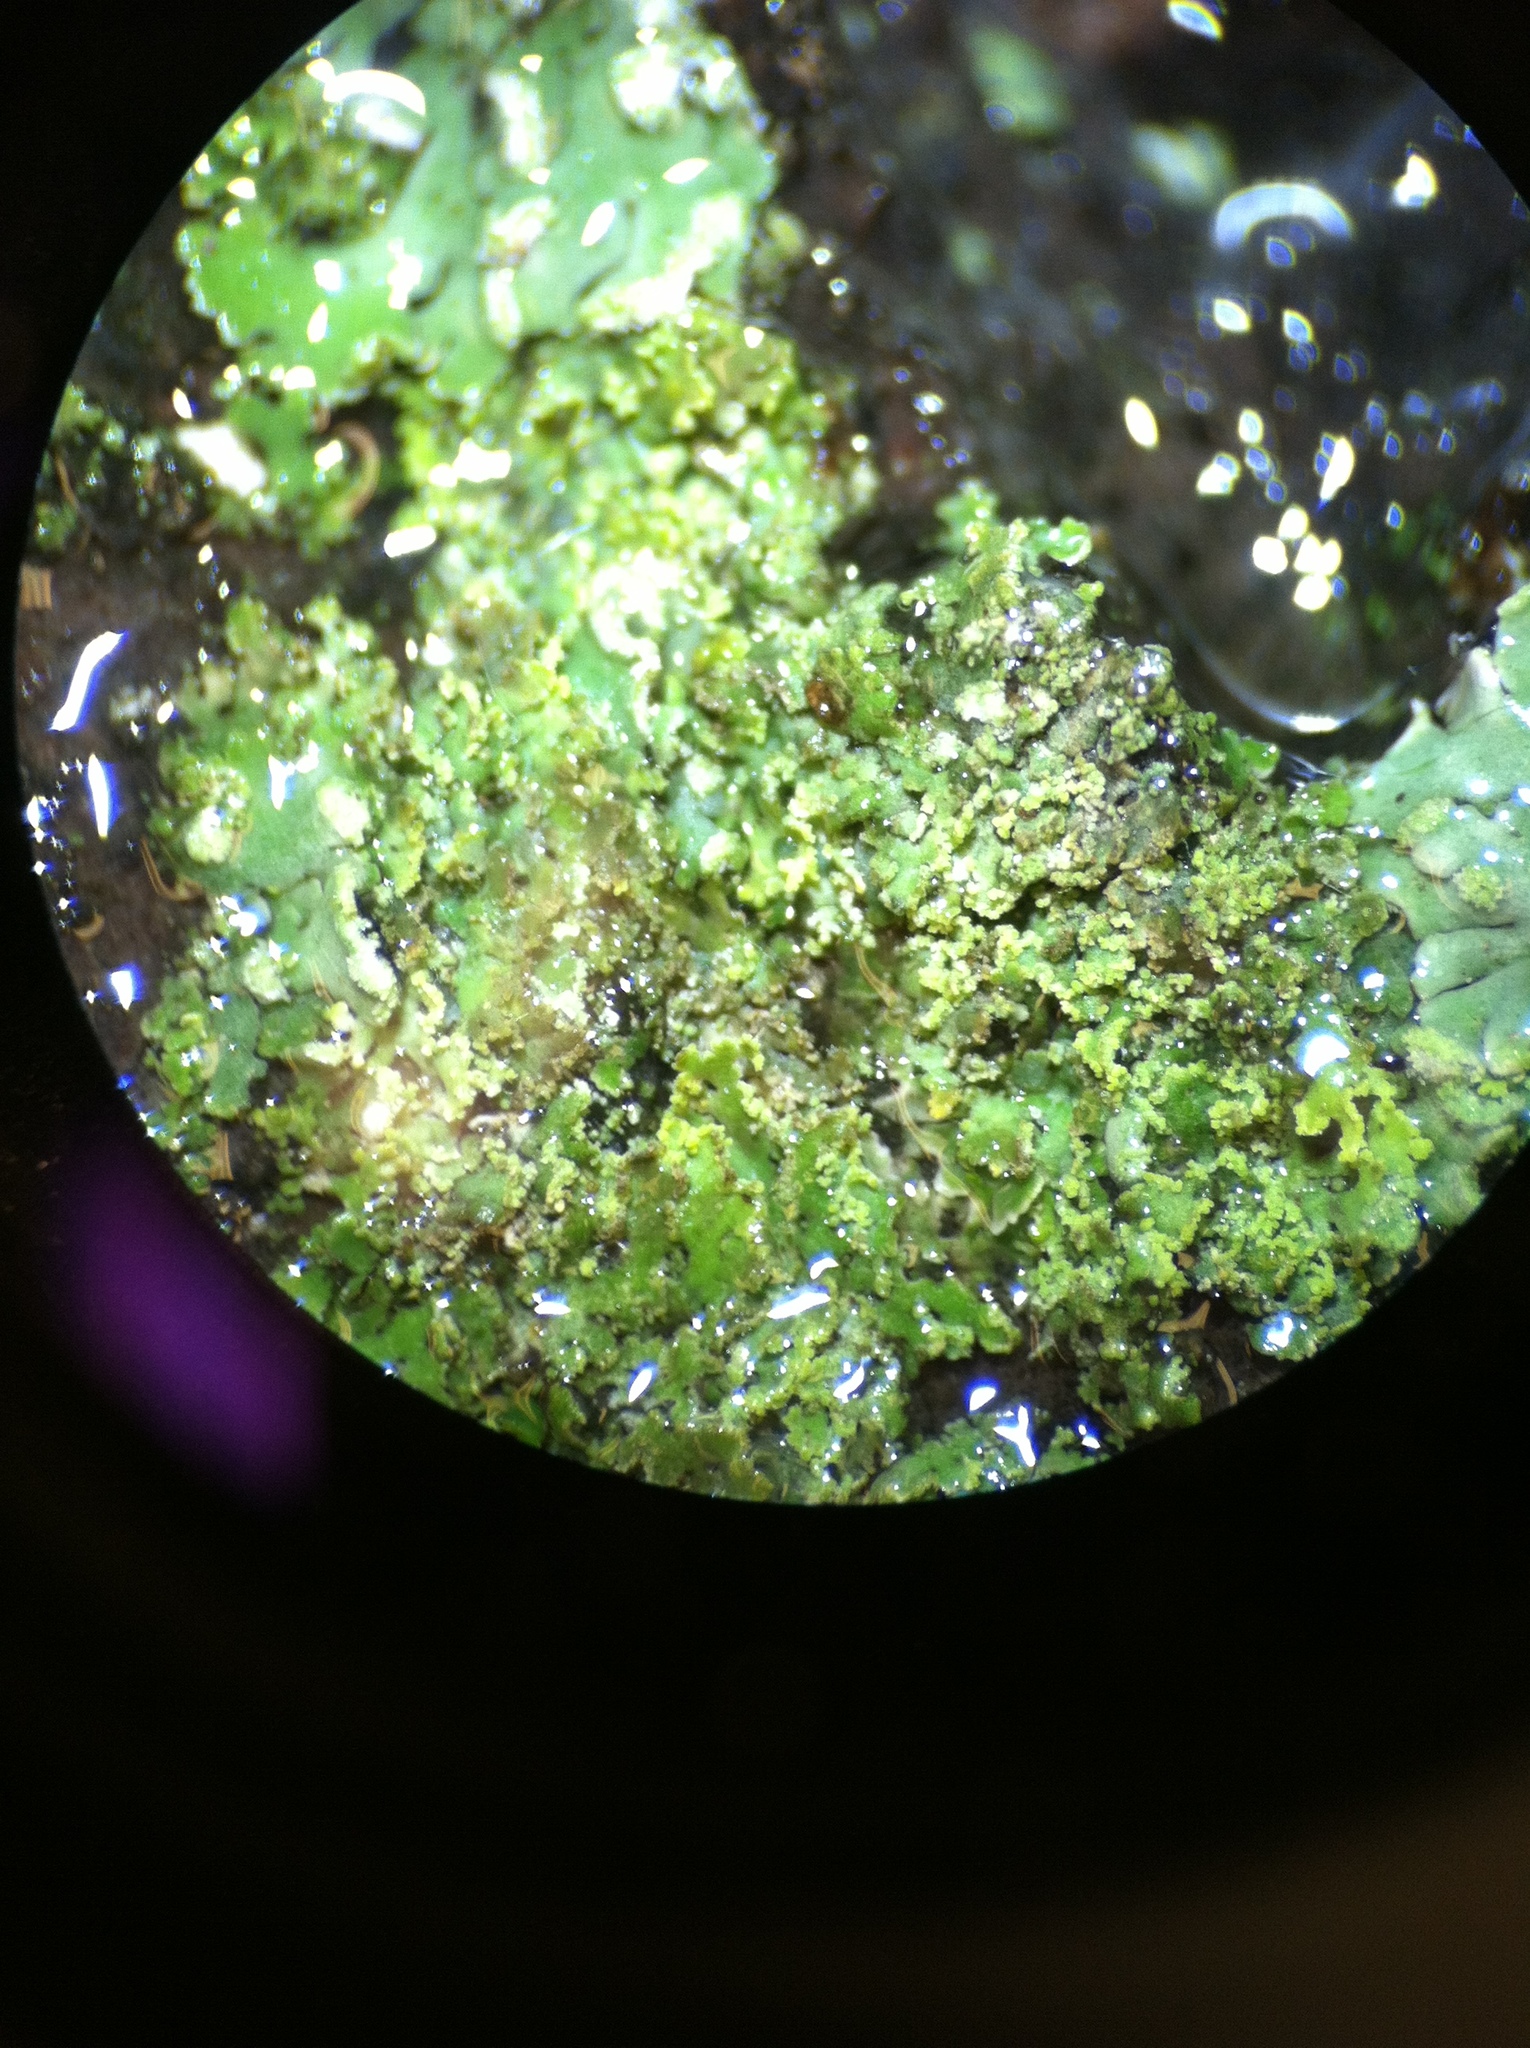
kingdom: Fungi
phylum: Ascomycota
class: Lecanoromycetes
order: Caliciales
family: Physciaceae
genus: Physcia
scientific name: Physcia millegrana
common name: Rosette lichen
